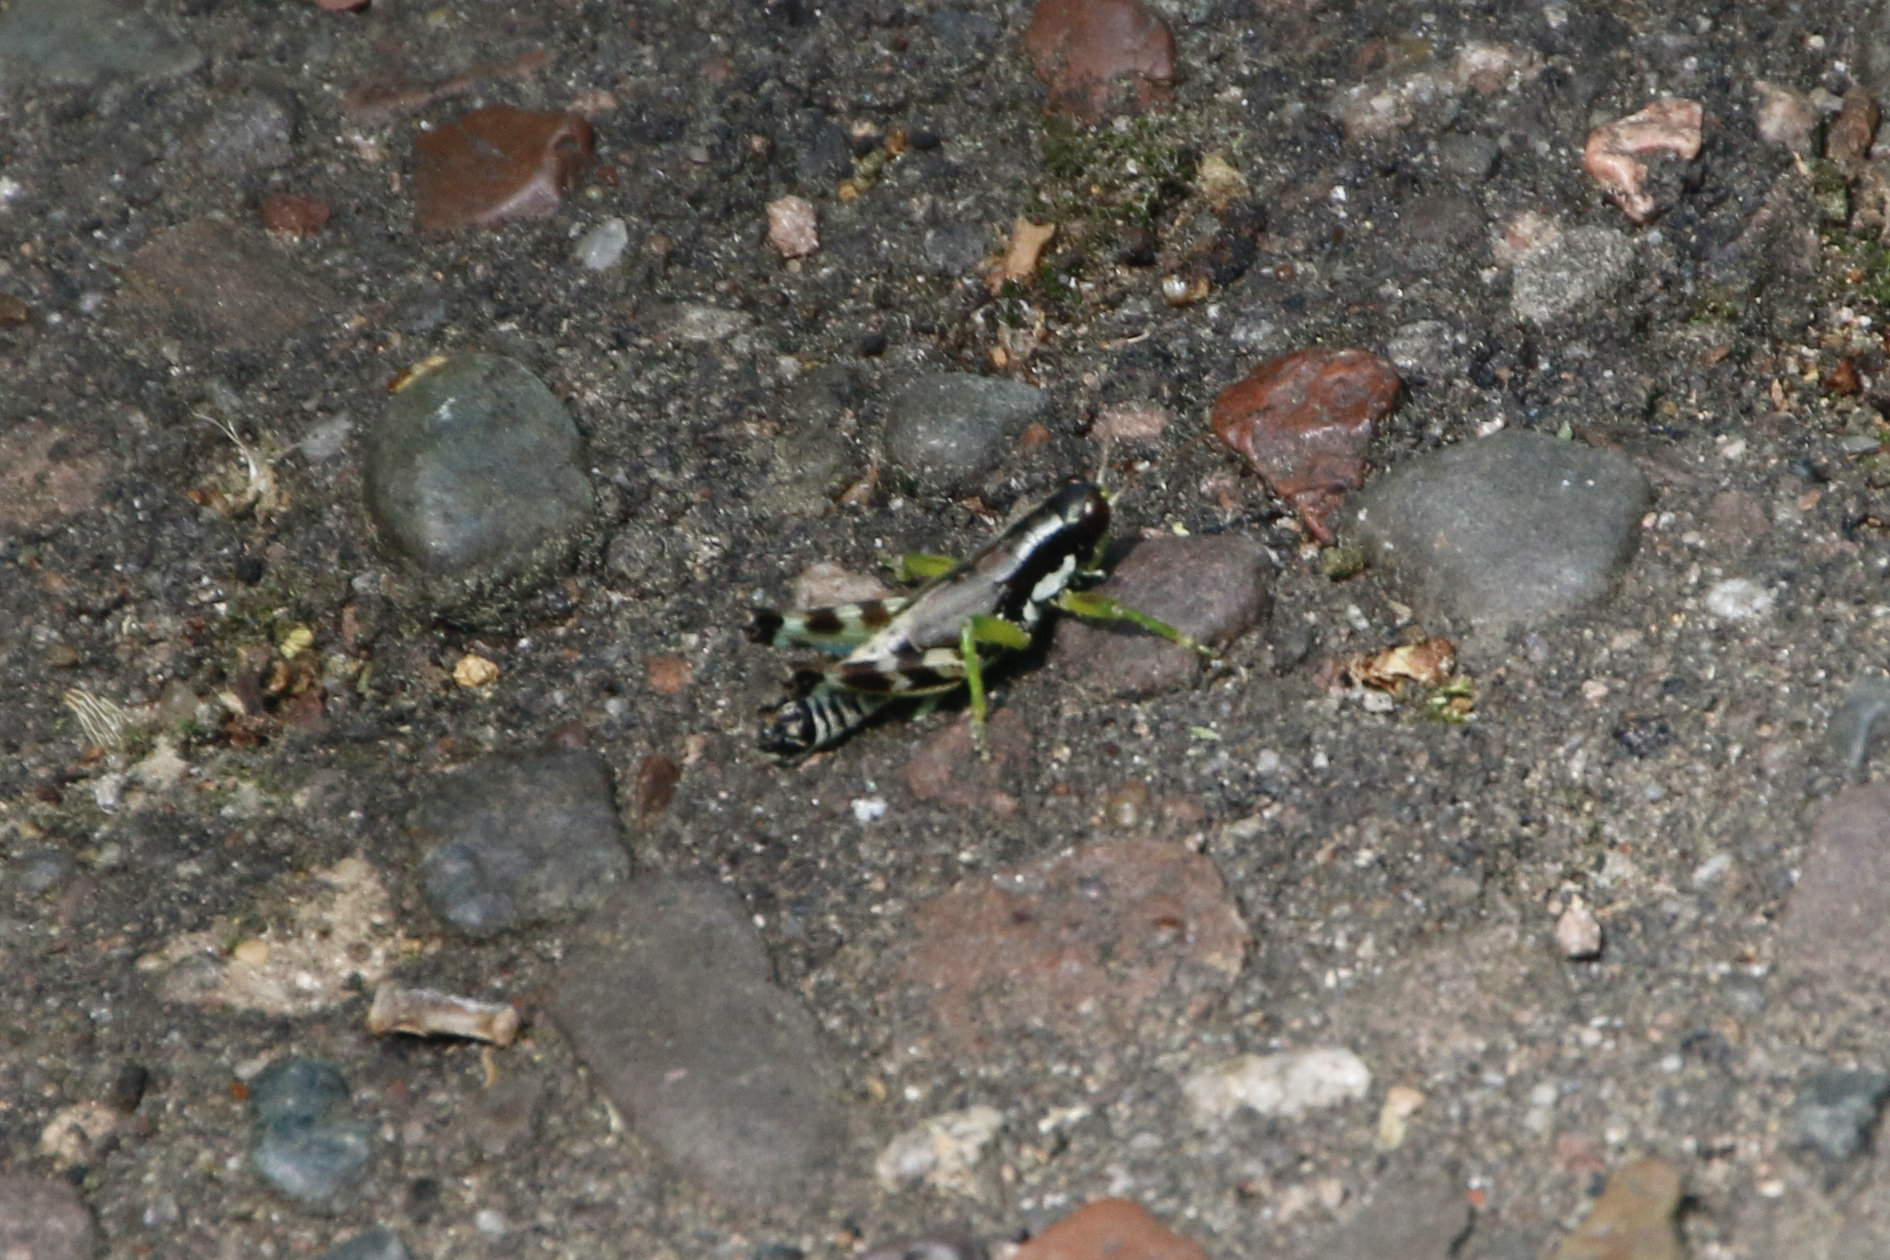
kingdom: Animalia
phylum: Arthropoda
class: Insecta
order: Orthoptera
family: Acrididae
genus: Melanoplus
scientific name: Melanoplus viridipes
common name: Green-legged locust
